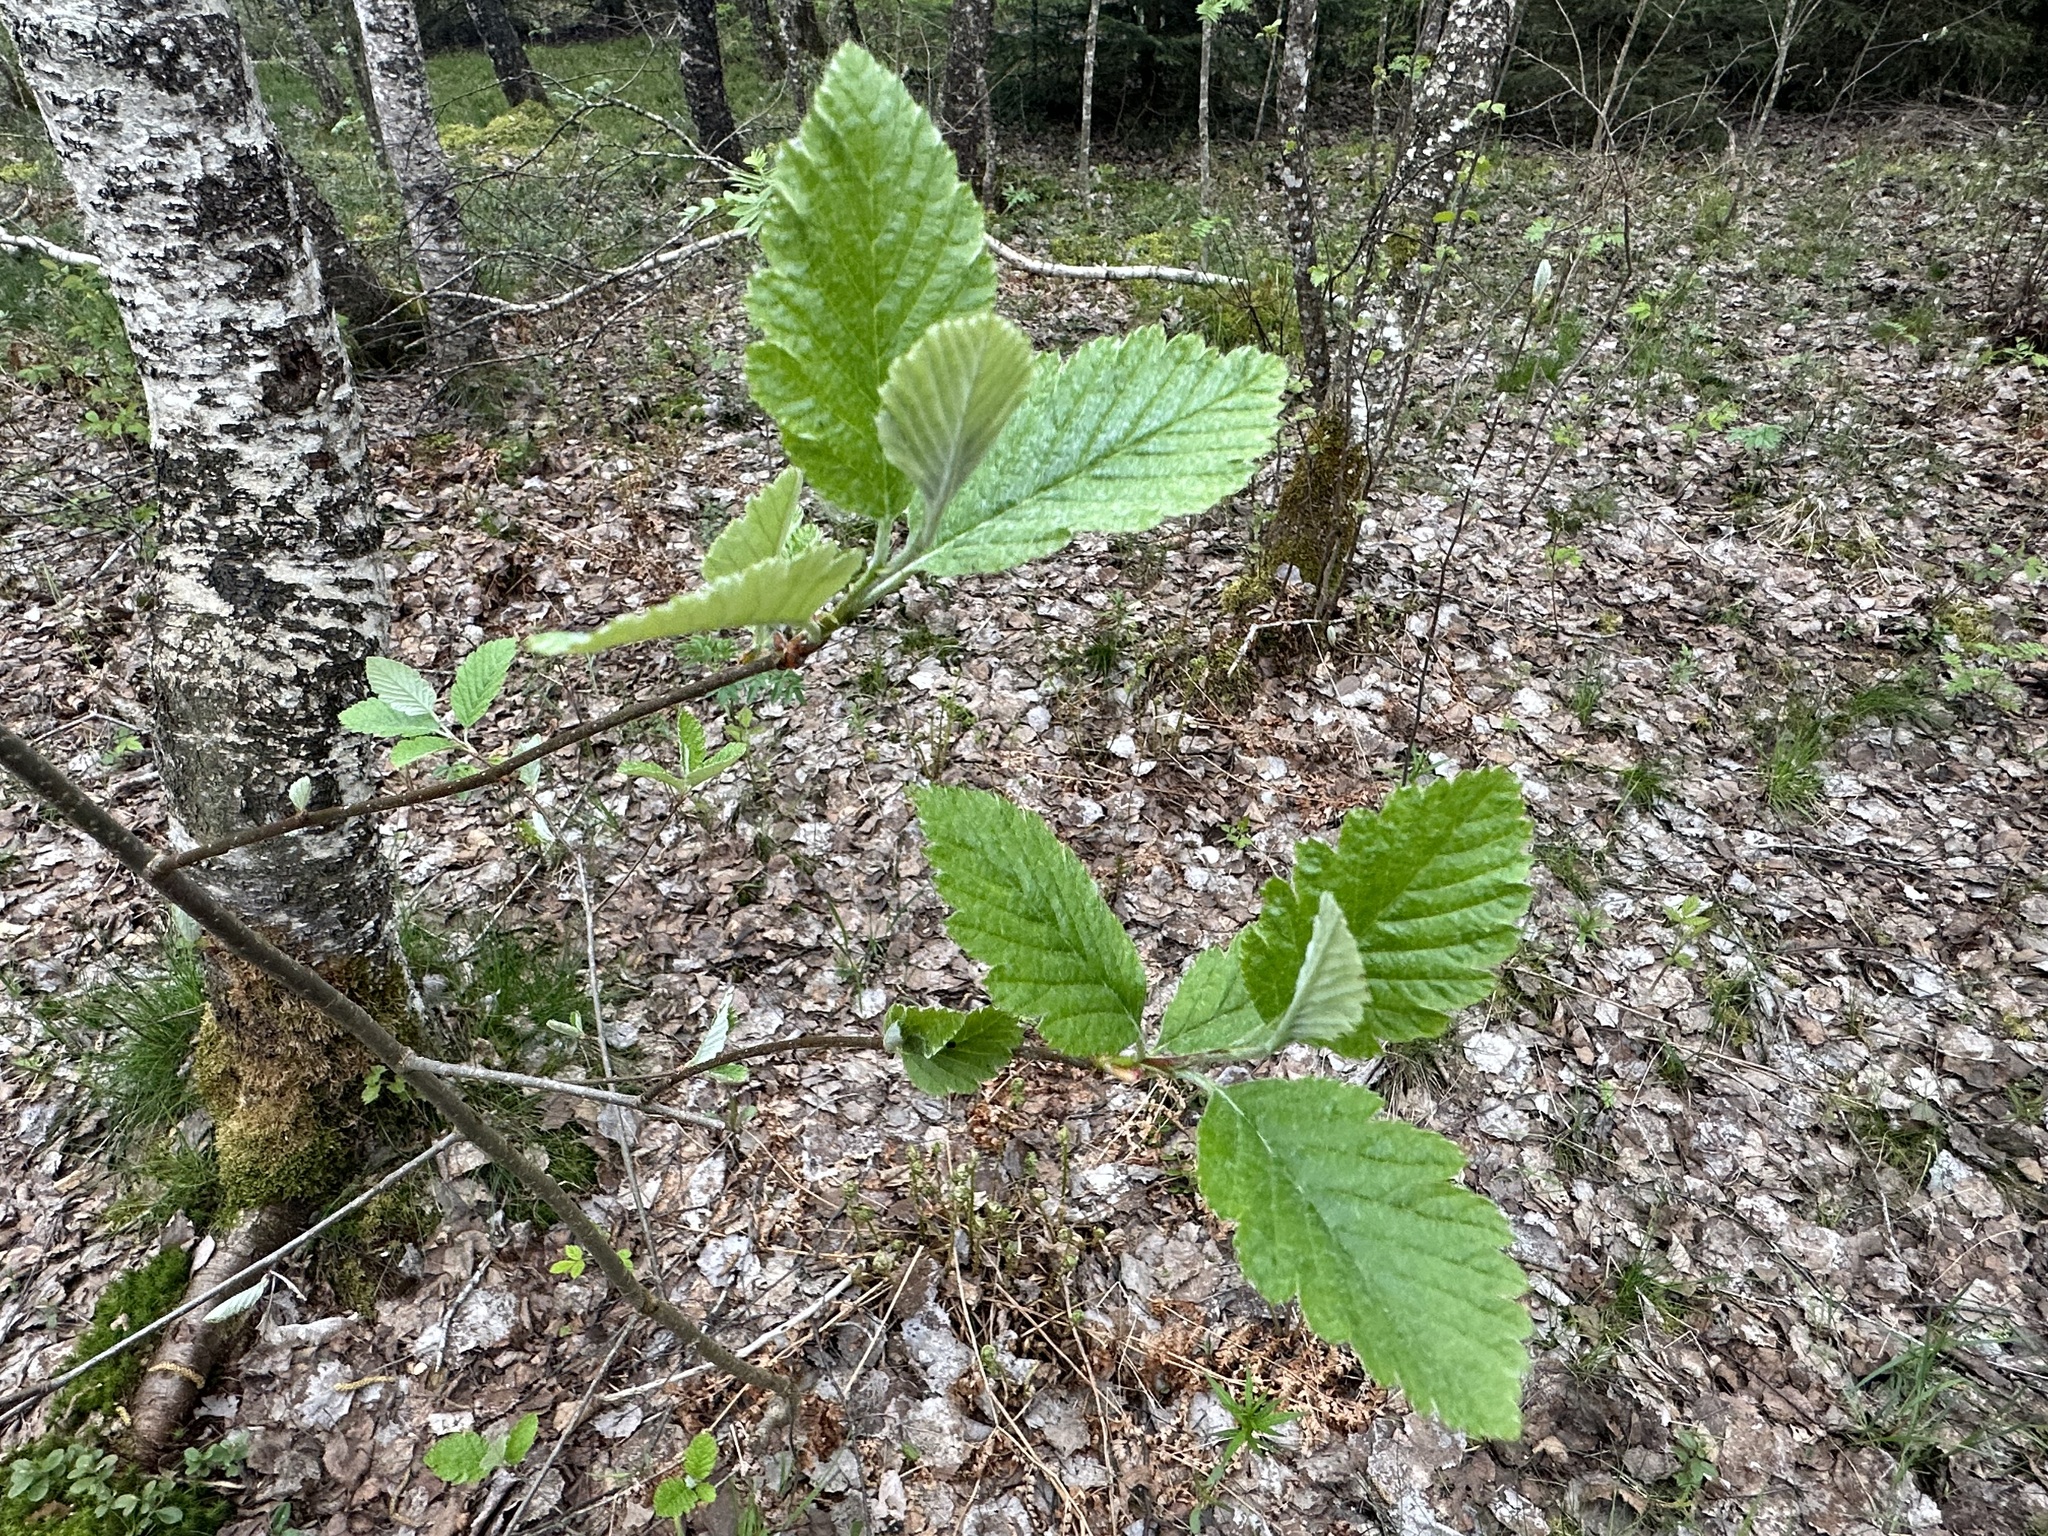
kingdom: Plantae
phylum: Tracheophyta
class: Magnoliopsida
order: Rosales
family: Rosaceae
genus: Hedlundia
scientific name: Hedlundia mougeotii
